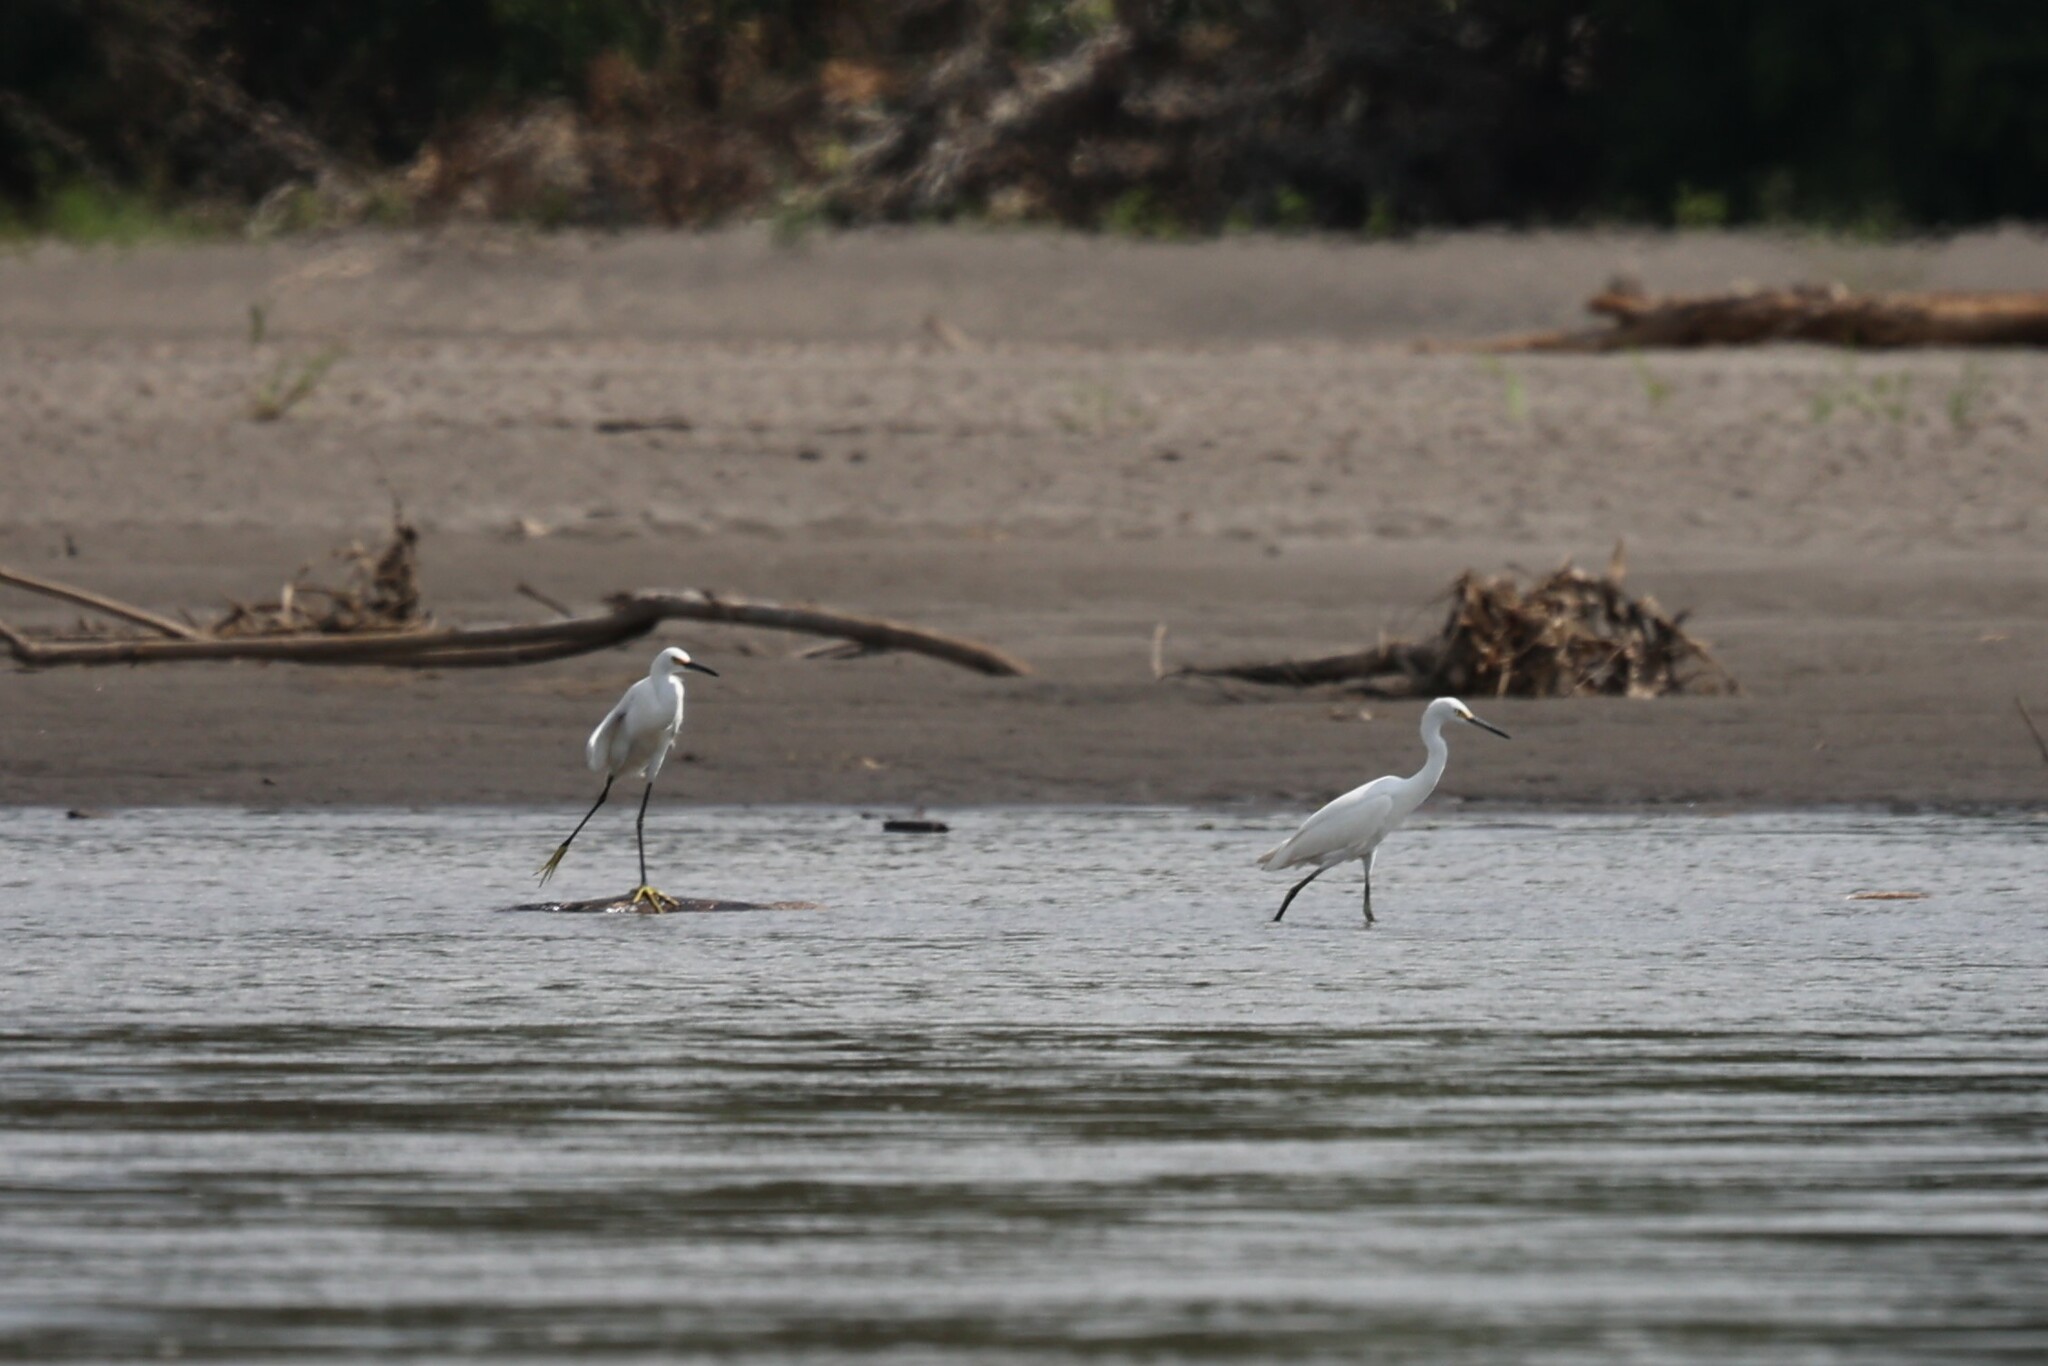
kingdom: Animalia
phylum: Chordata
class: Aves
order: Pelecaniformes
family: Ardeidae
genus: Egretta
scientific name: Egretta thula
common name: Snowy egret
